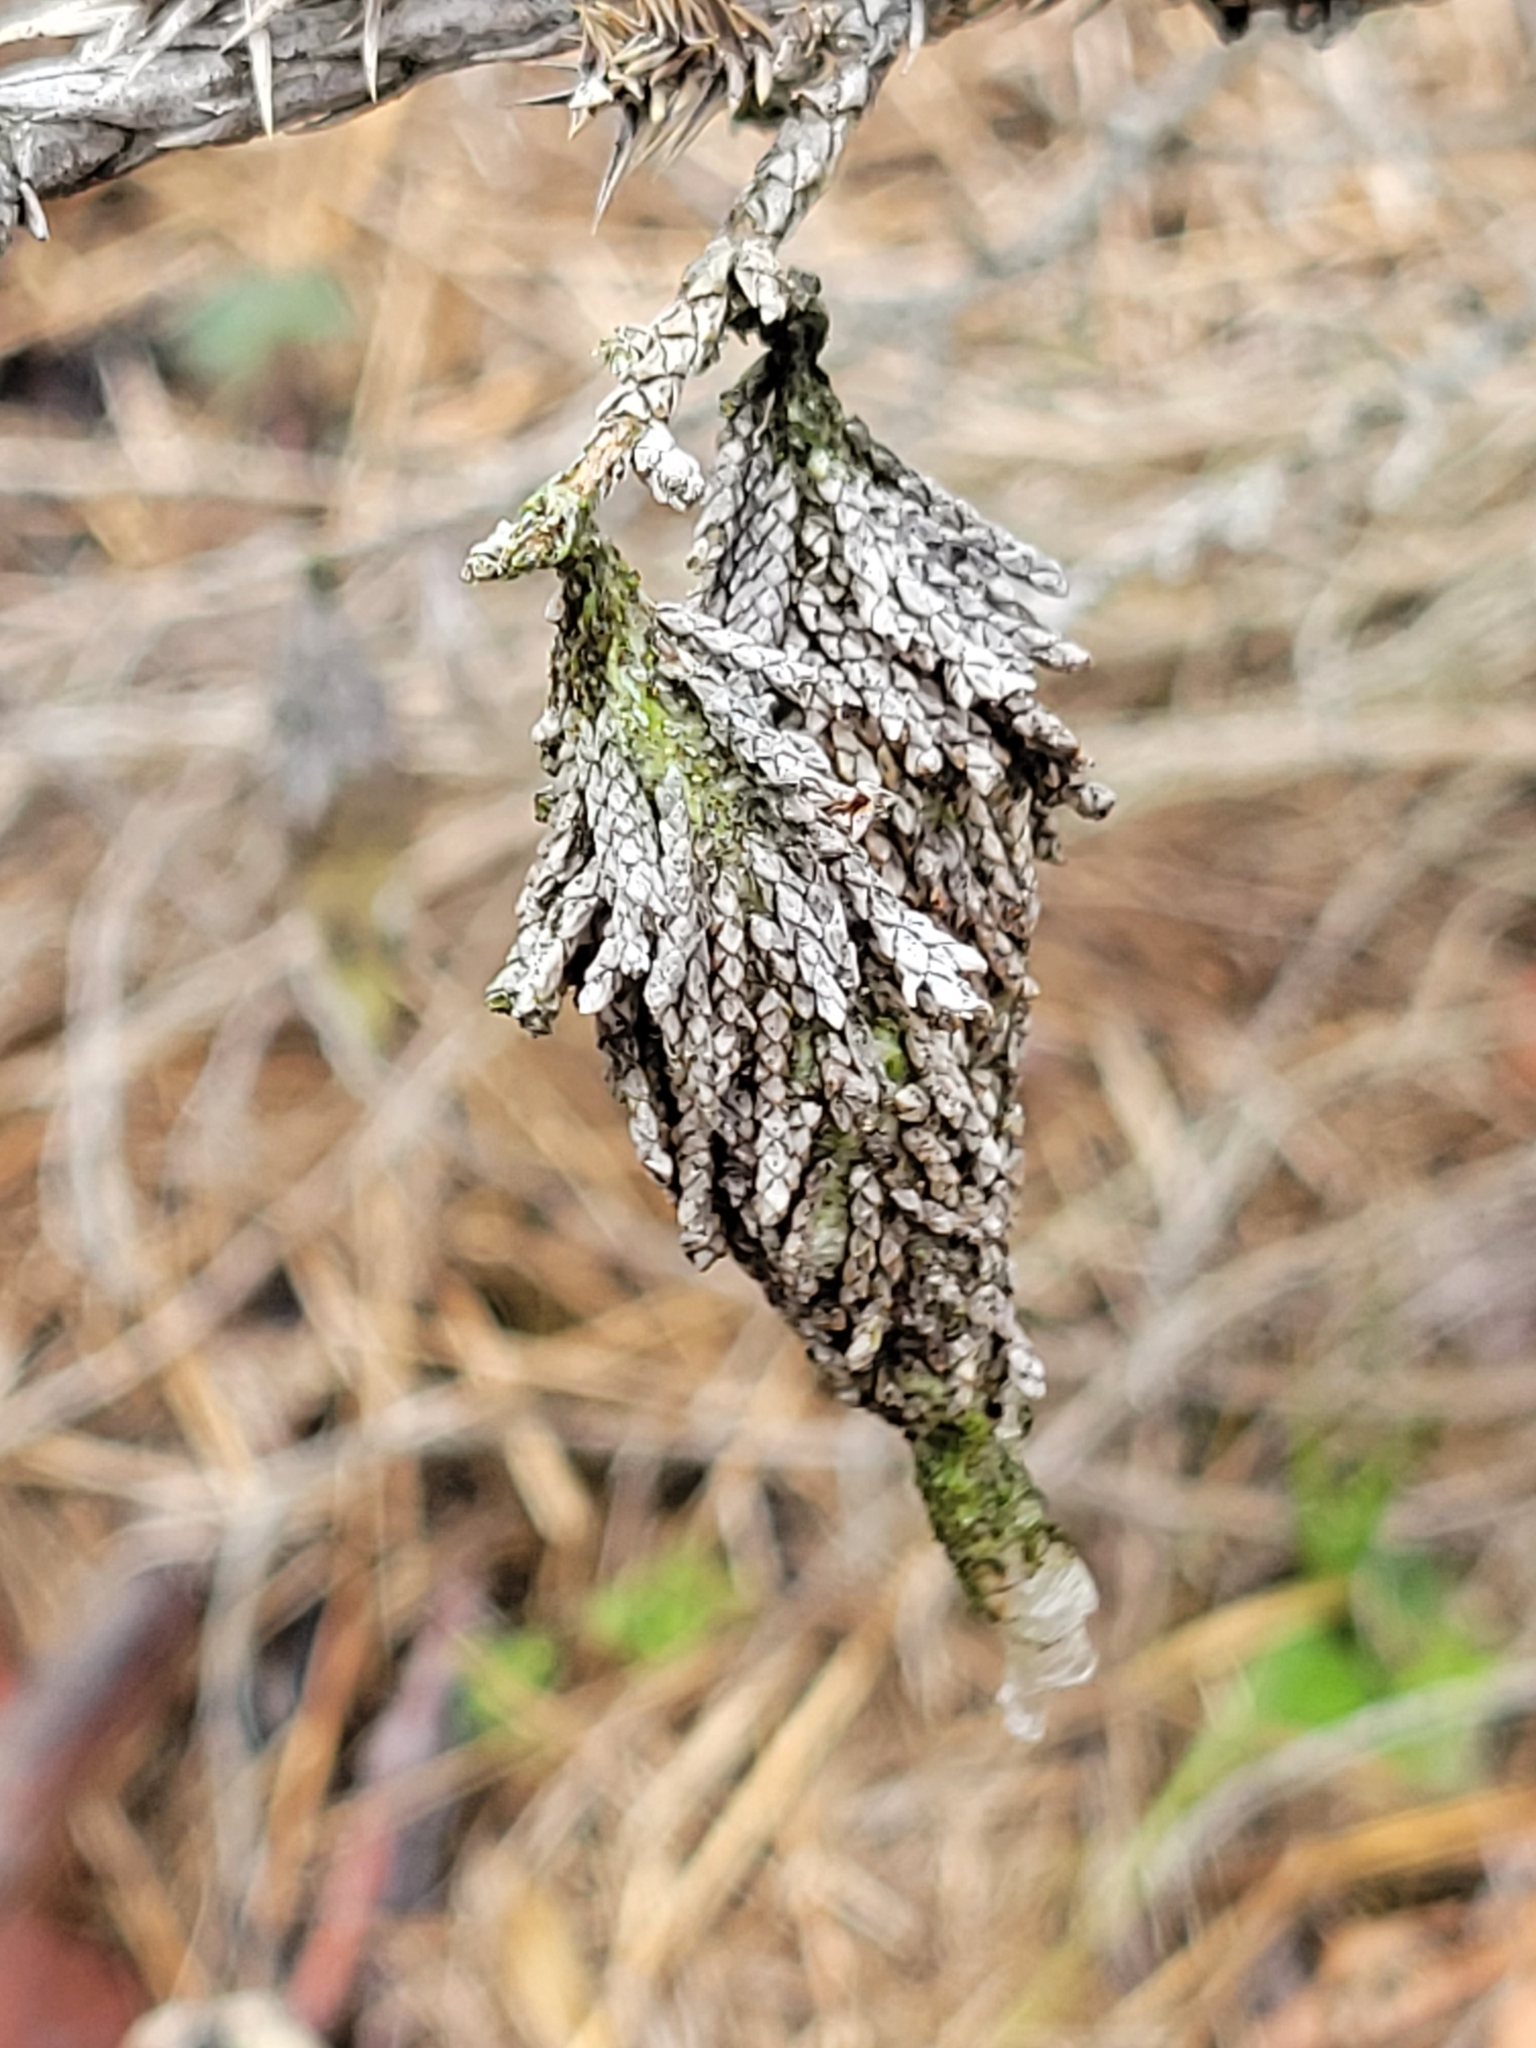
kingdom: Animalia
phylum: Arthropoda
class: Insecta
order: Lepidoptera
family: Psychidae
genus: Thyridopteryx
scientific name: Thyridopteryx ephemeraeformis
